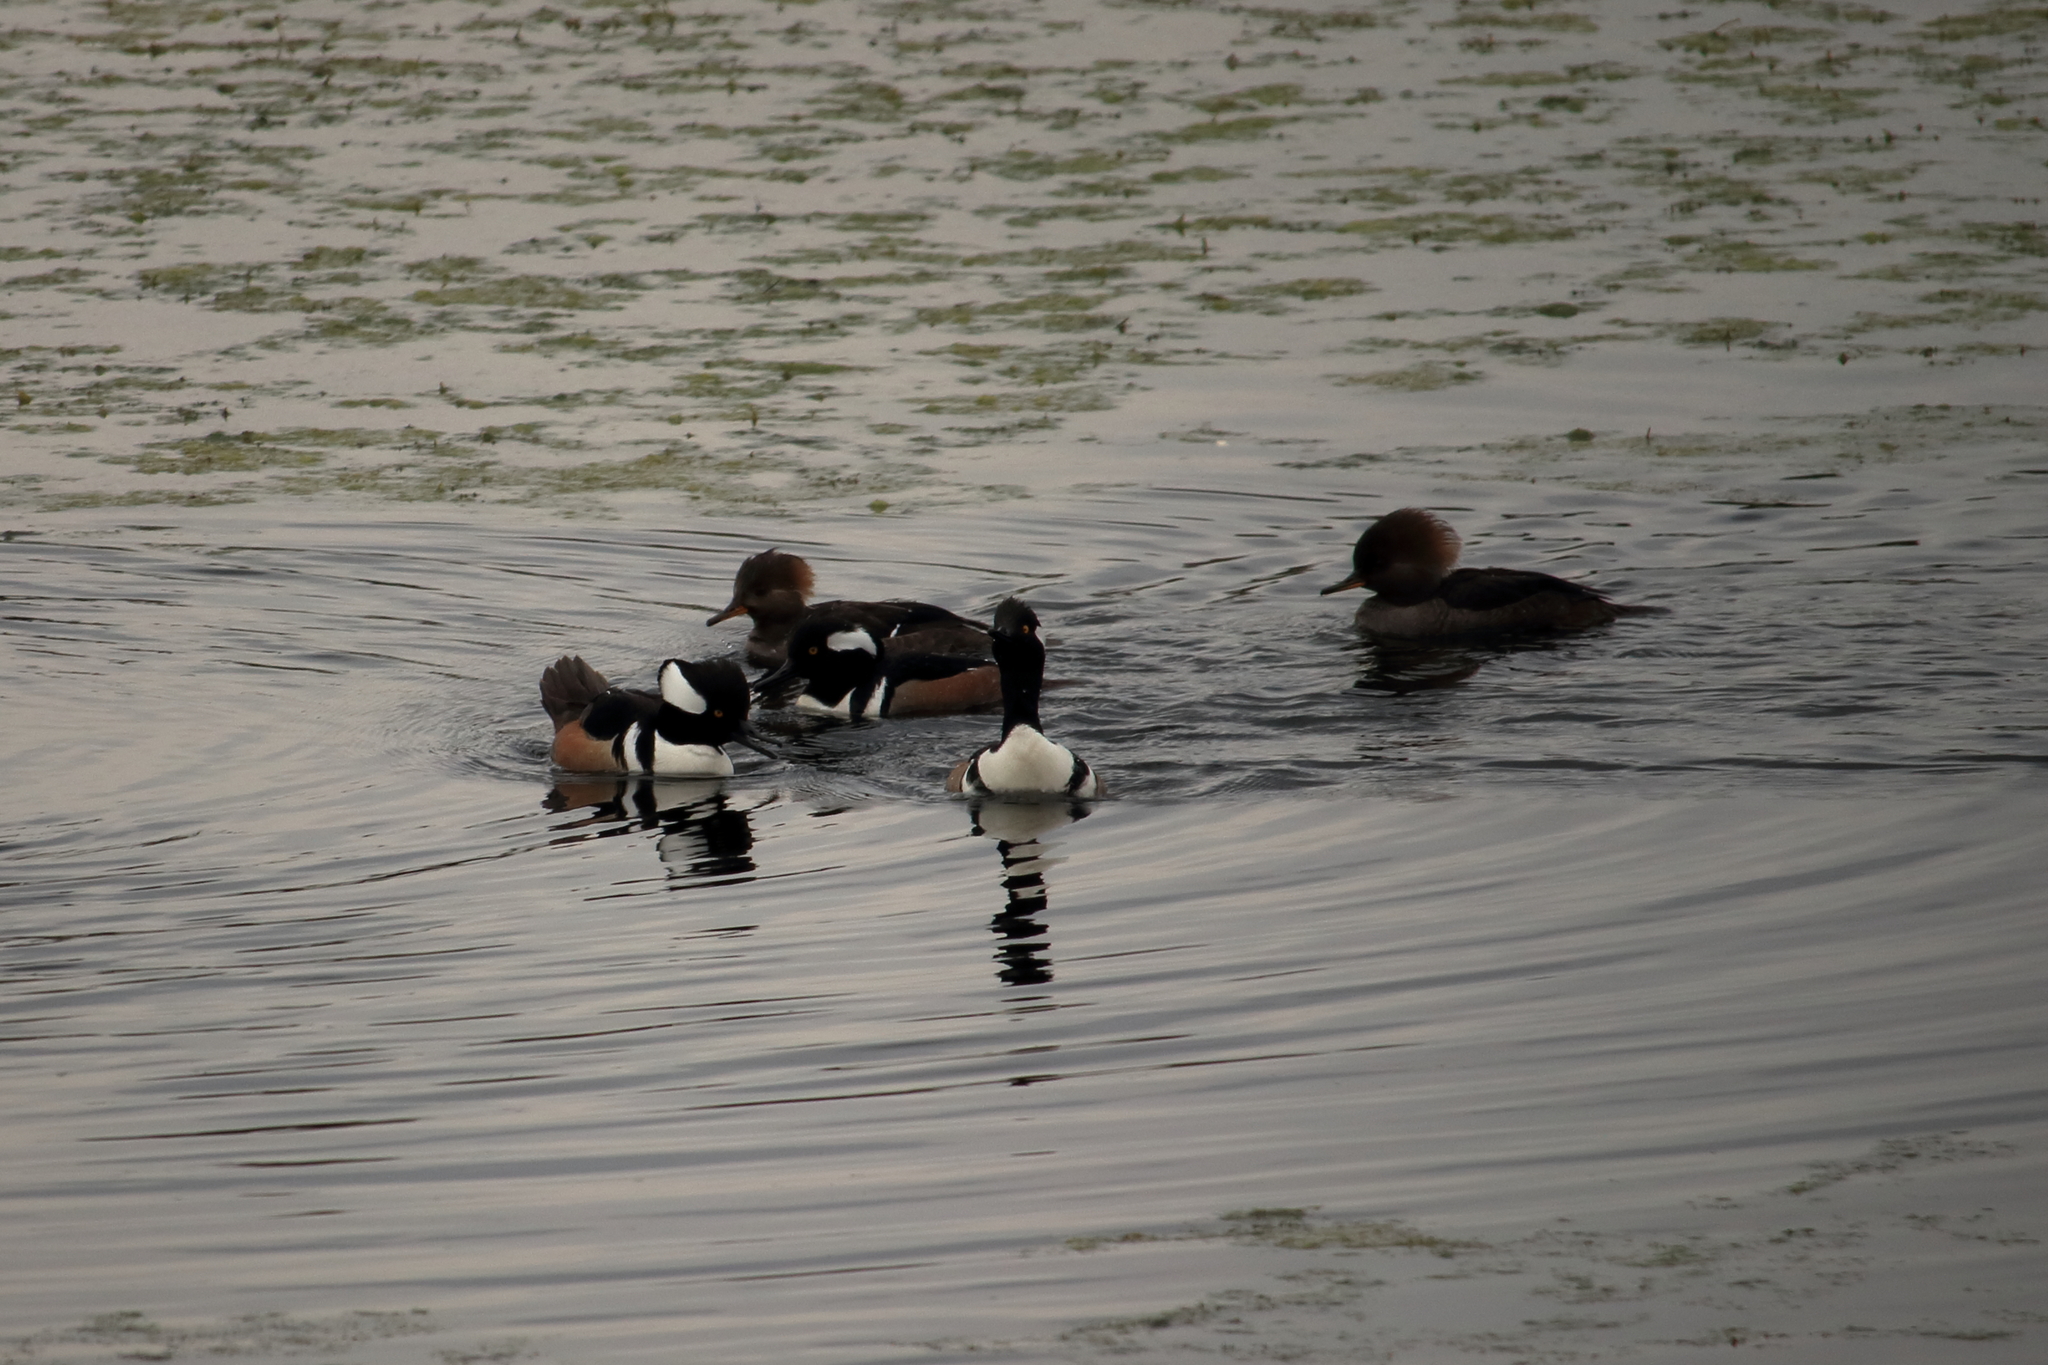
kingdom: Animalia
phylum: Chordata
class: Aves
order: Anseriformes
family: Anatidae
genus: Lophodytes
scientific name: Lophodytes cucullatus
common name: Hooded merganser
